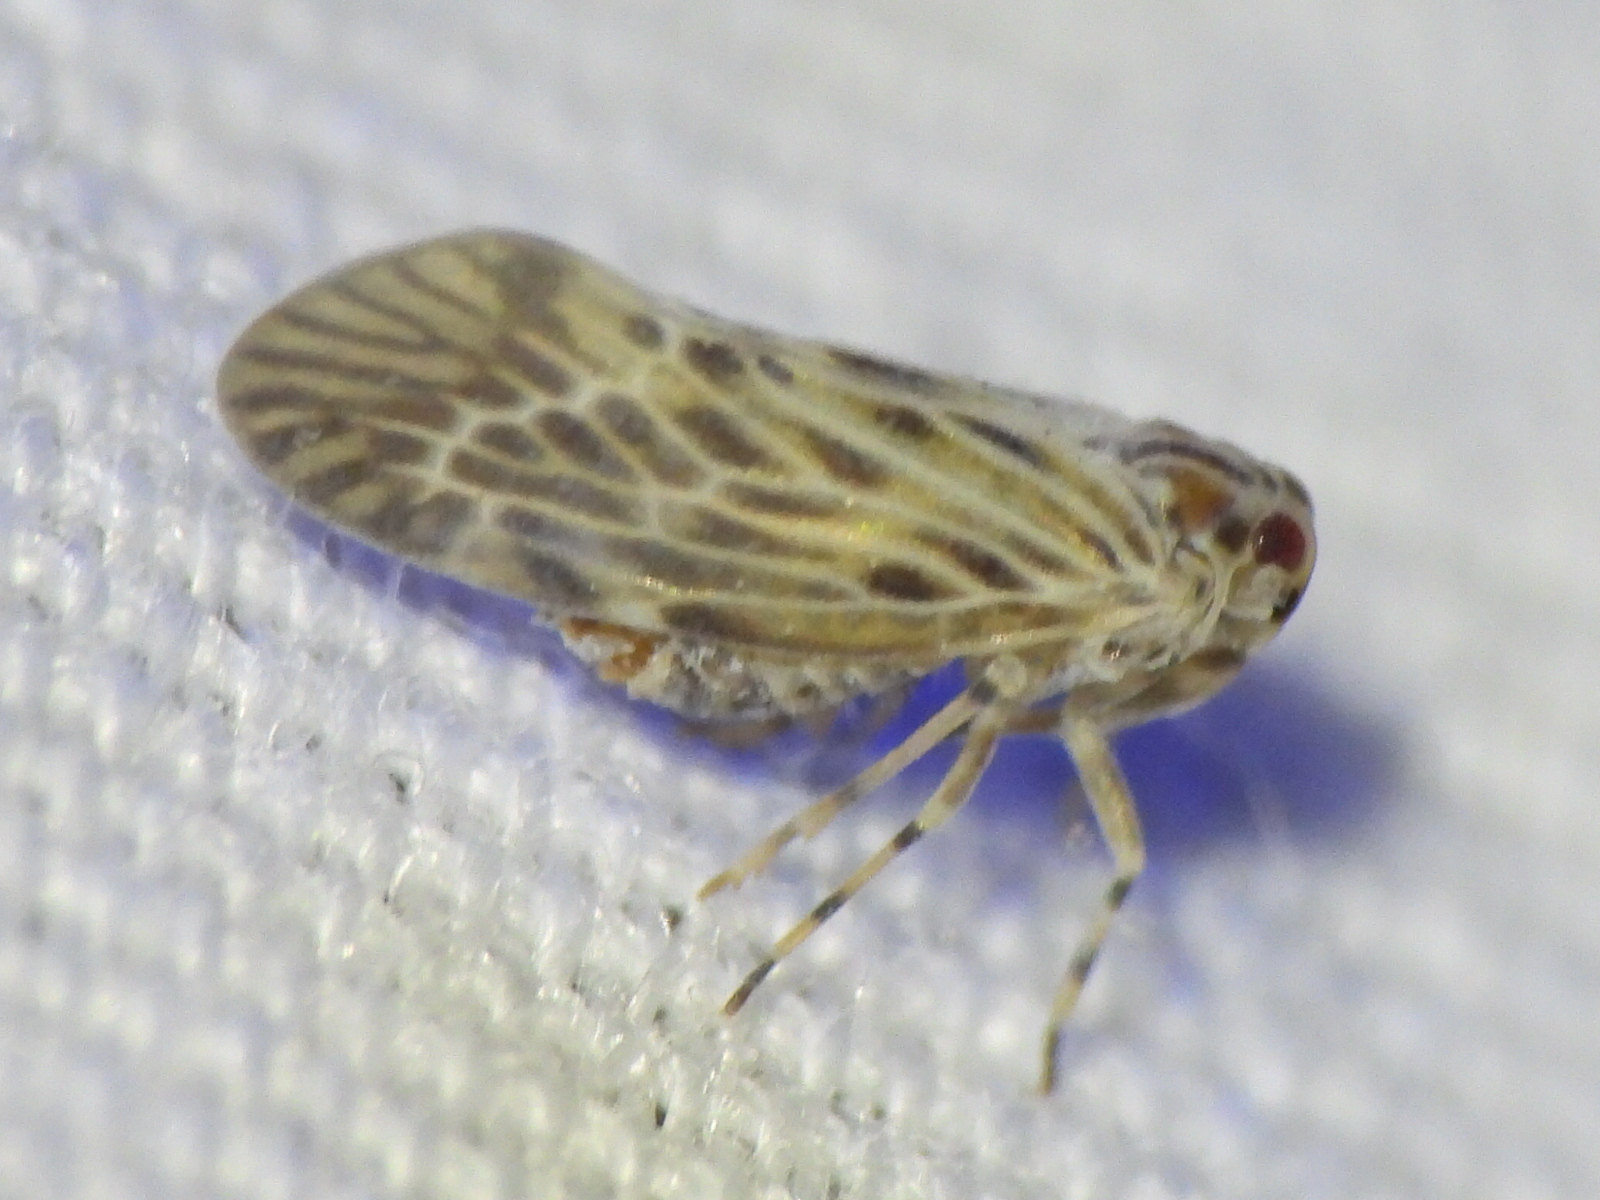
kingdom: Animalia
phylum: Arthropoda
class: Insecta
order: Hemiptera
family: Derbidae
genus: Cedusa
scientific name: Cedusa maculata
